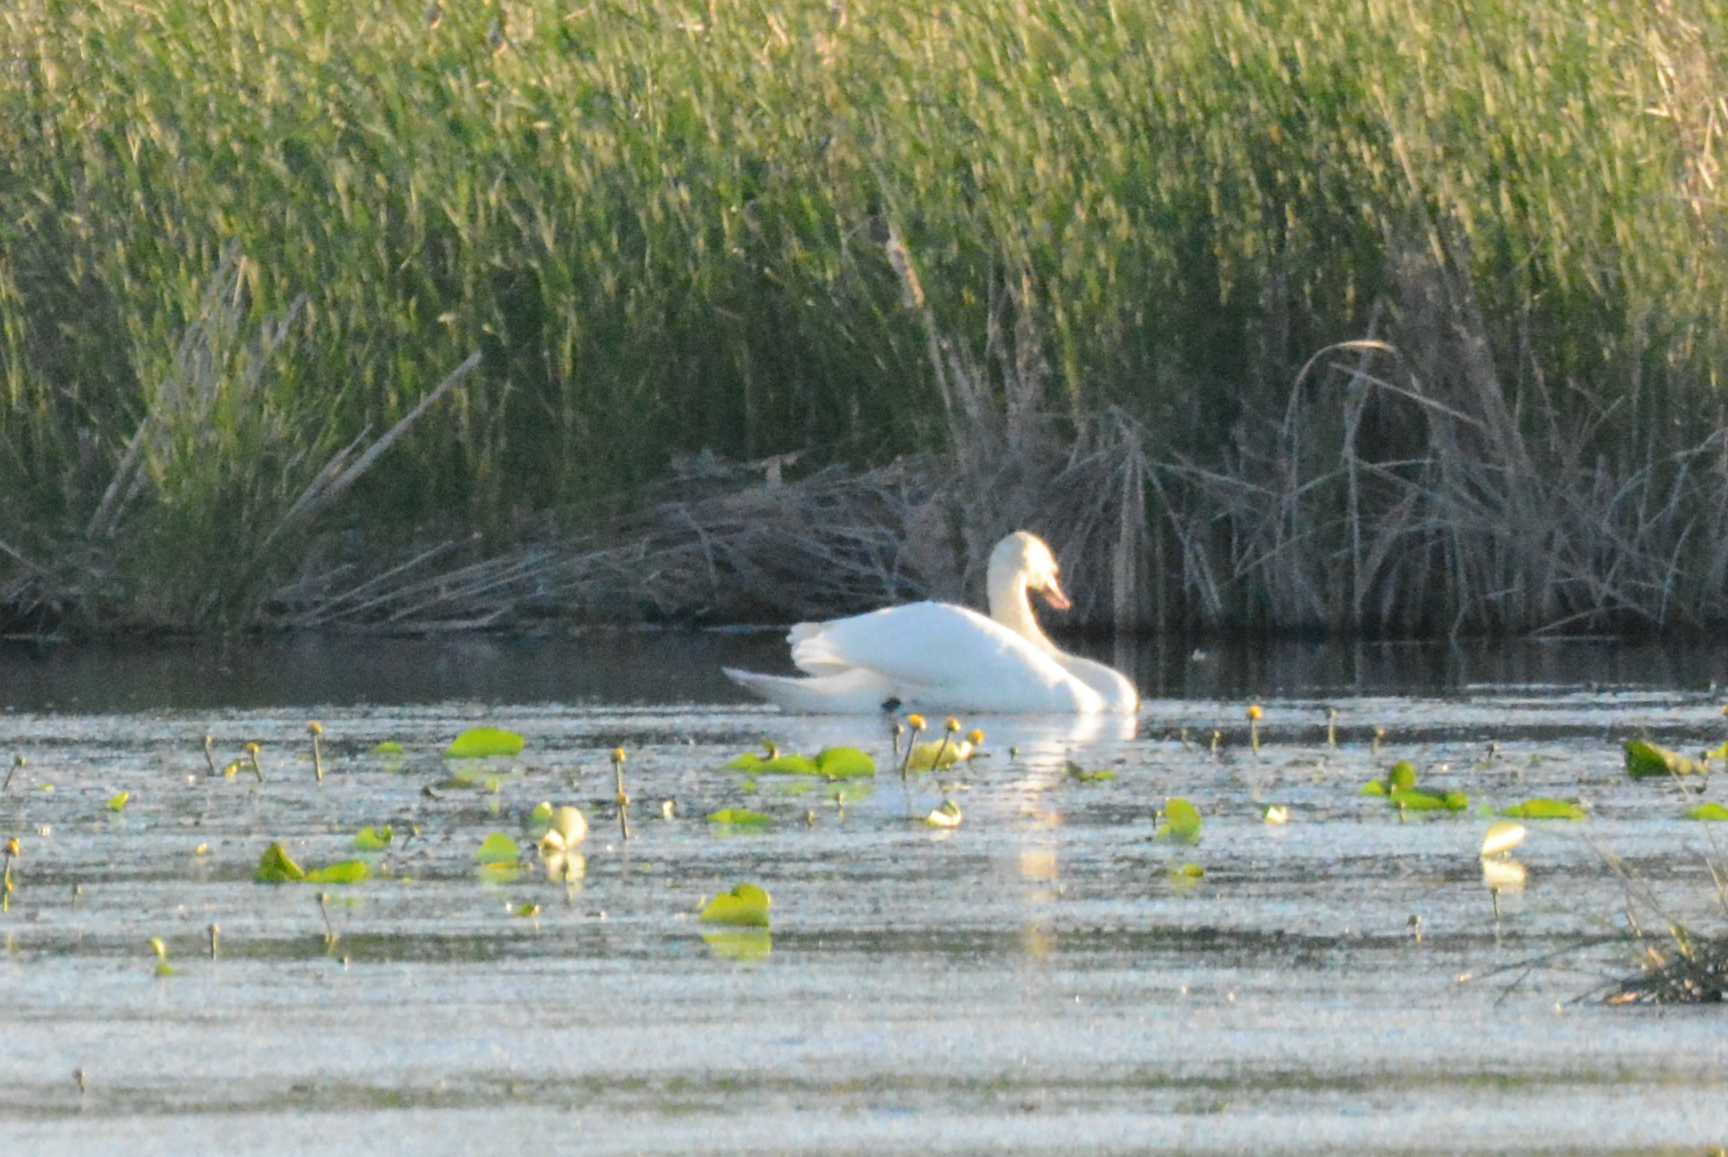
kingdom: Animalia
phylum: Chordata
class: Aves
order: Anseriformes
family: Anatidae
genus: Cygnus
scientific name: Cygnus olor
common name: Mute swan
